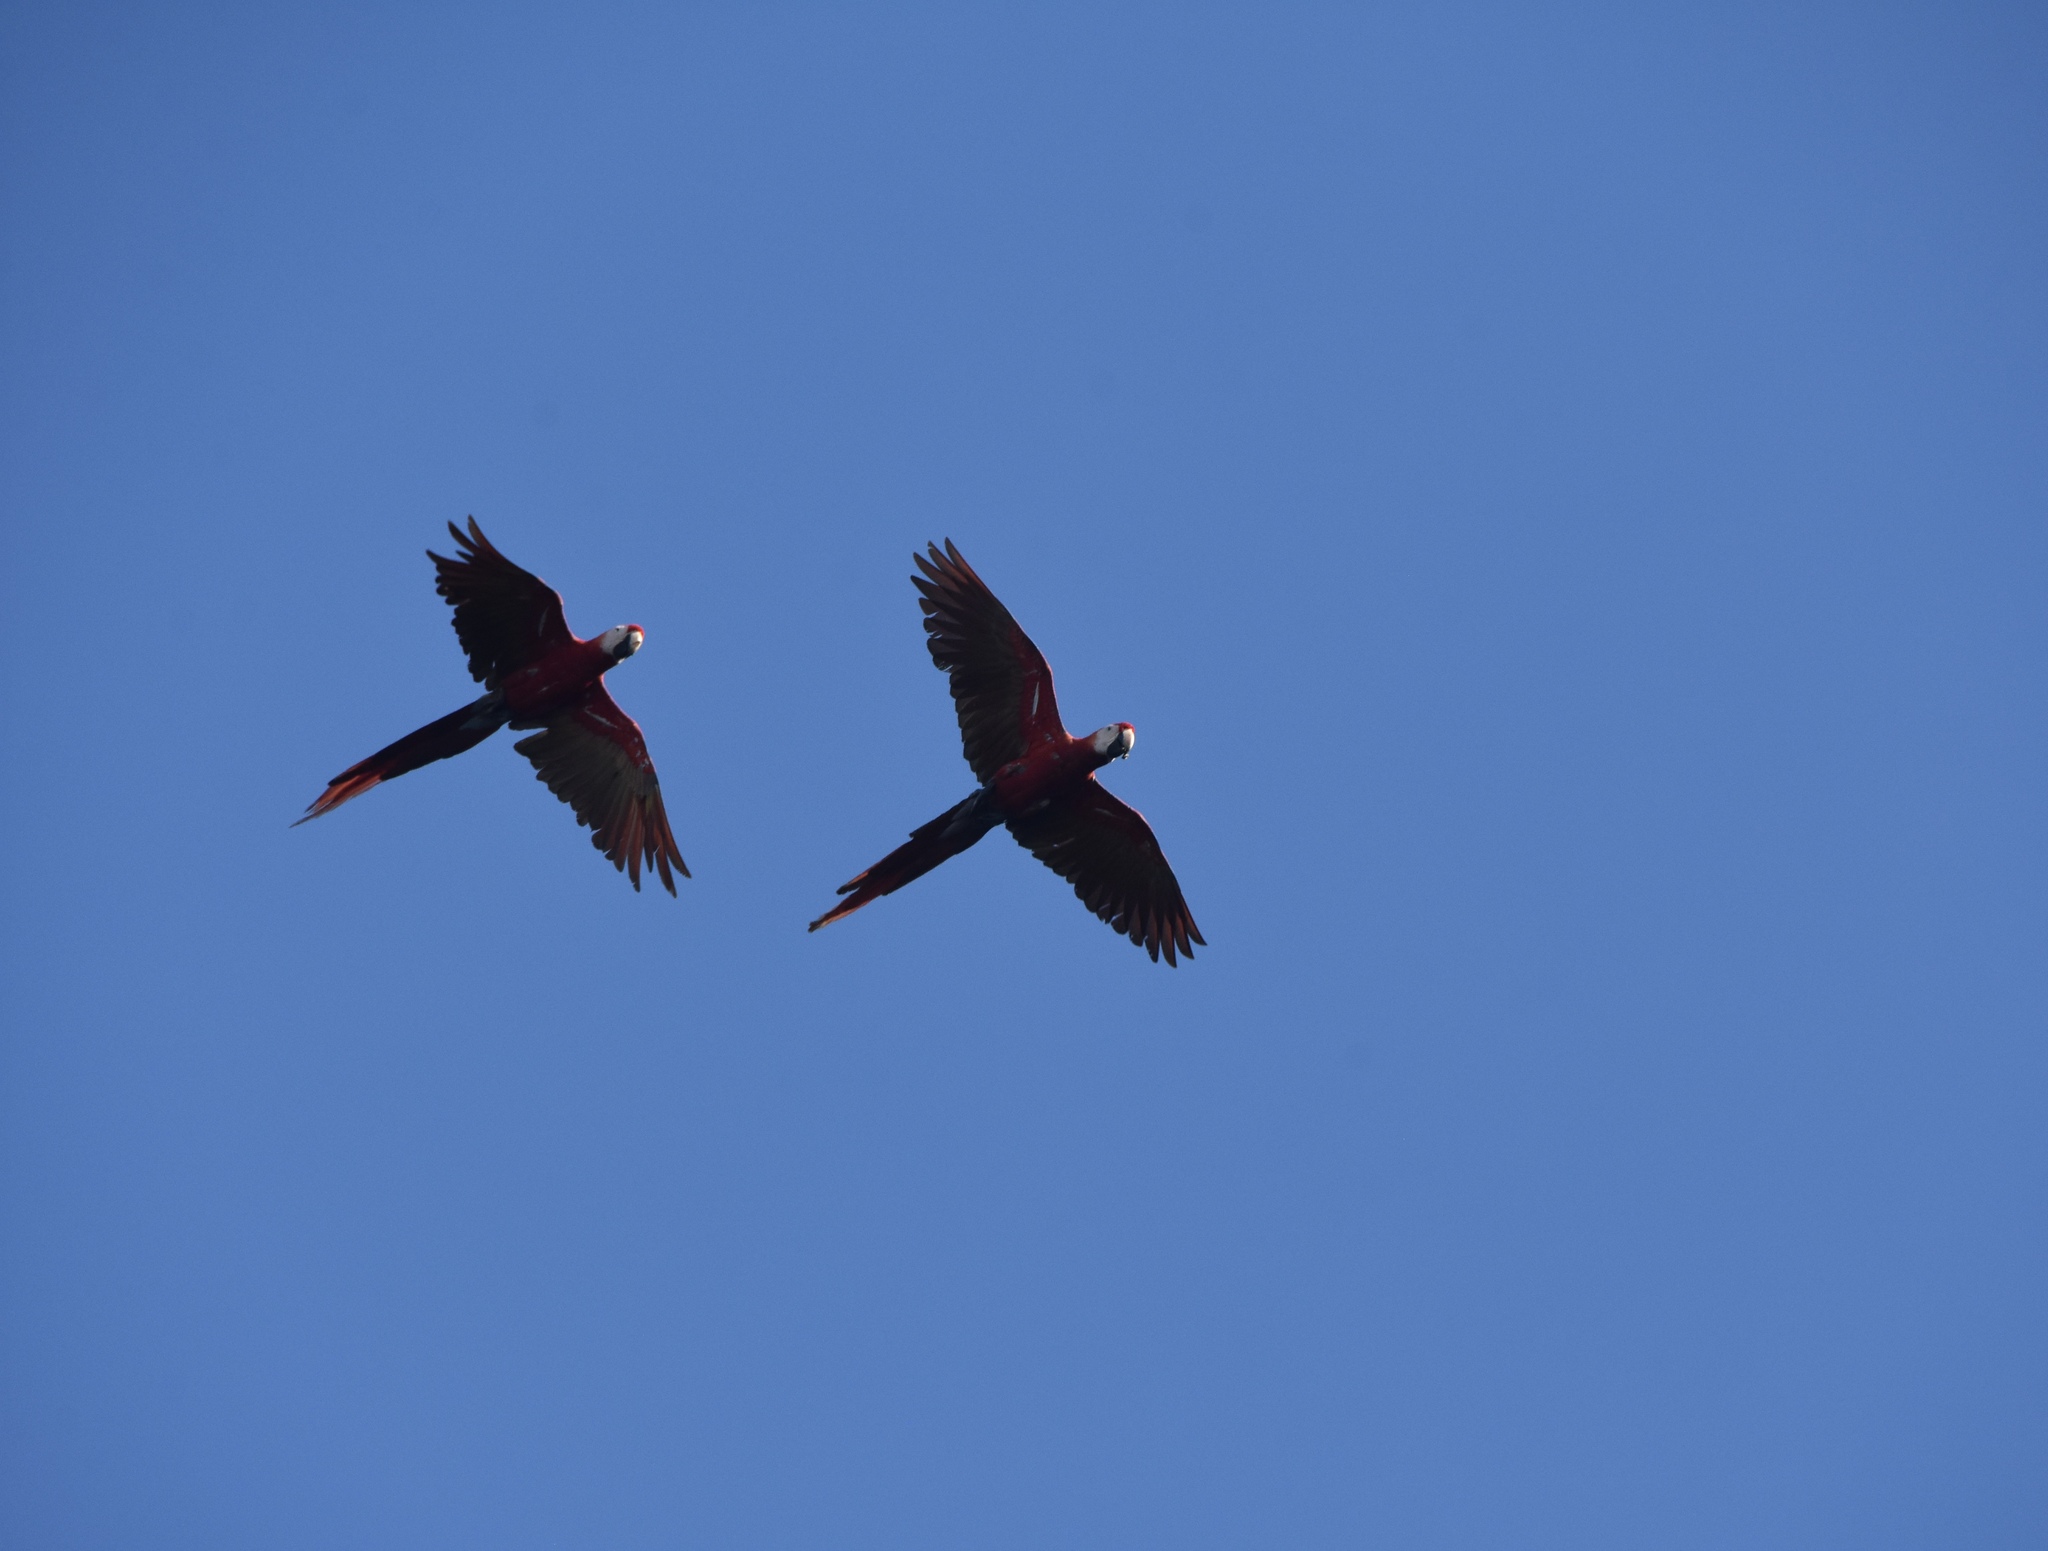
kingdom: Animalia
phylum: Chordata
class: Aves
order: Psittaciformes
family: Psittacidae
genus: Ara
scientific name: Ara macao
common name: Scarlet macaw
